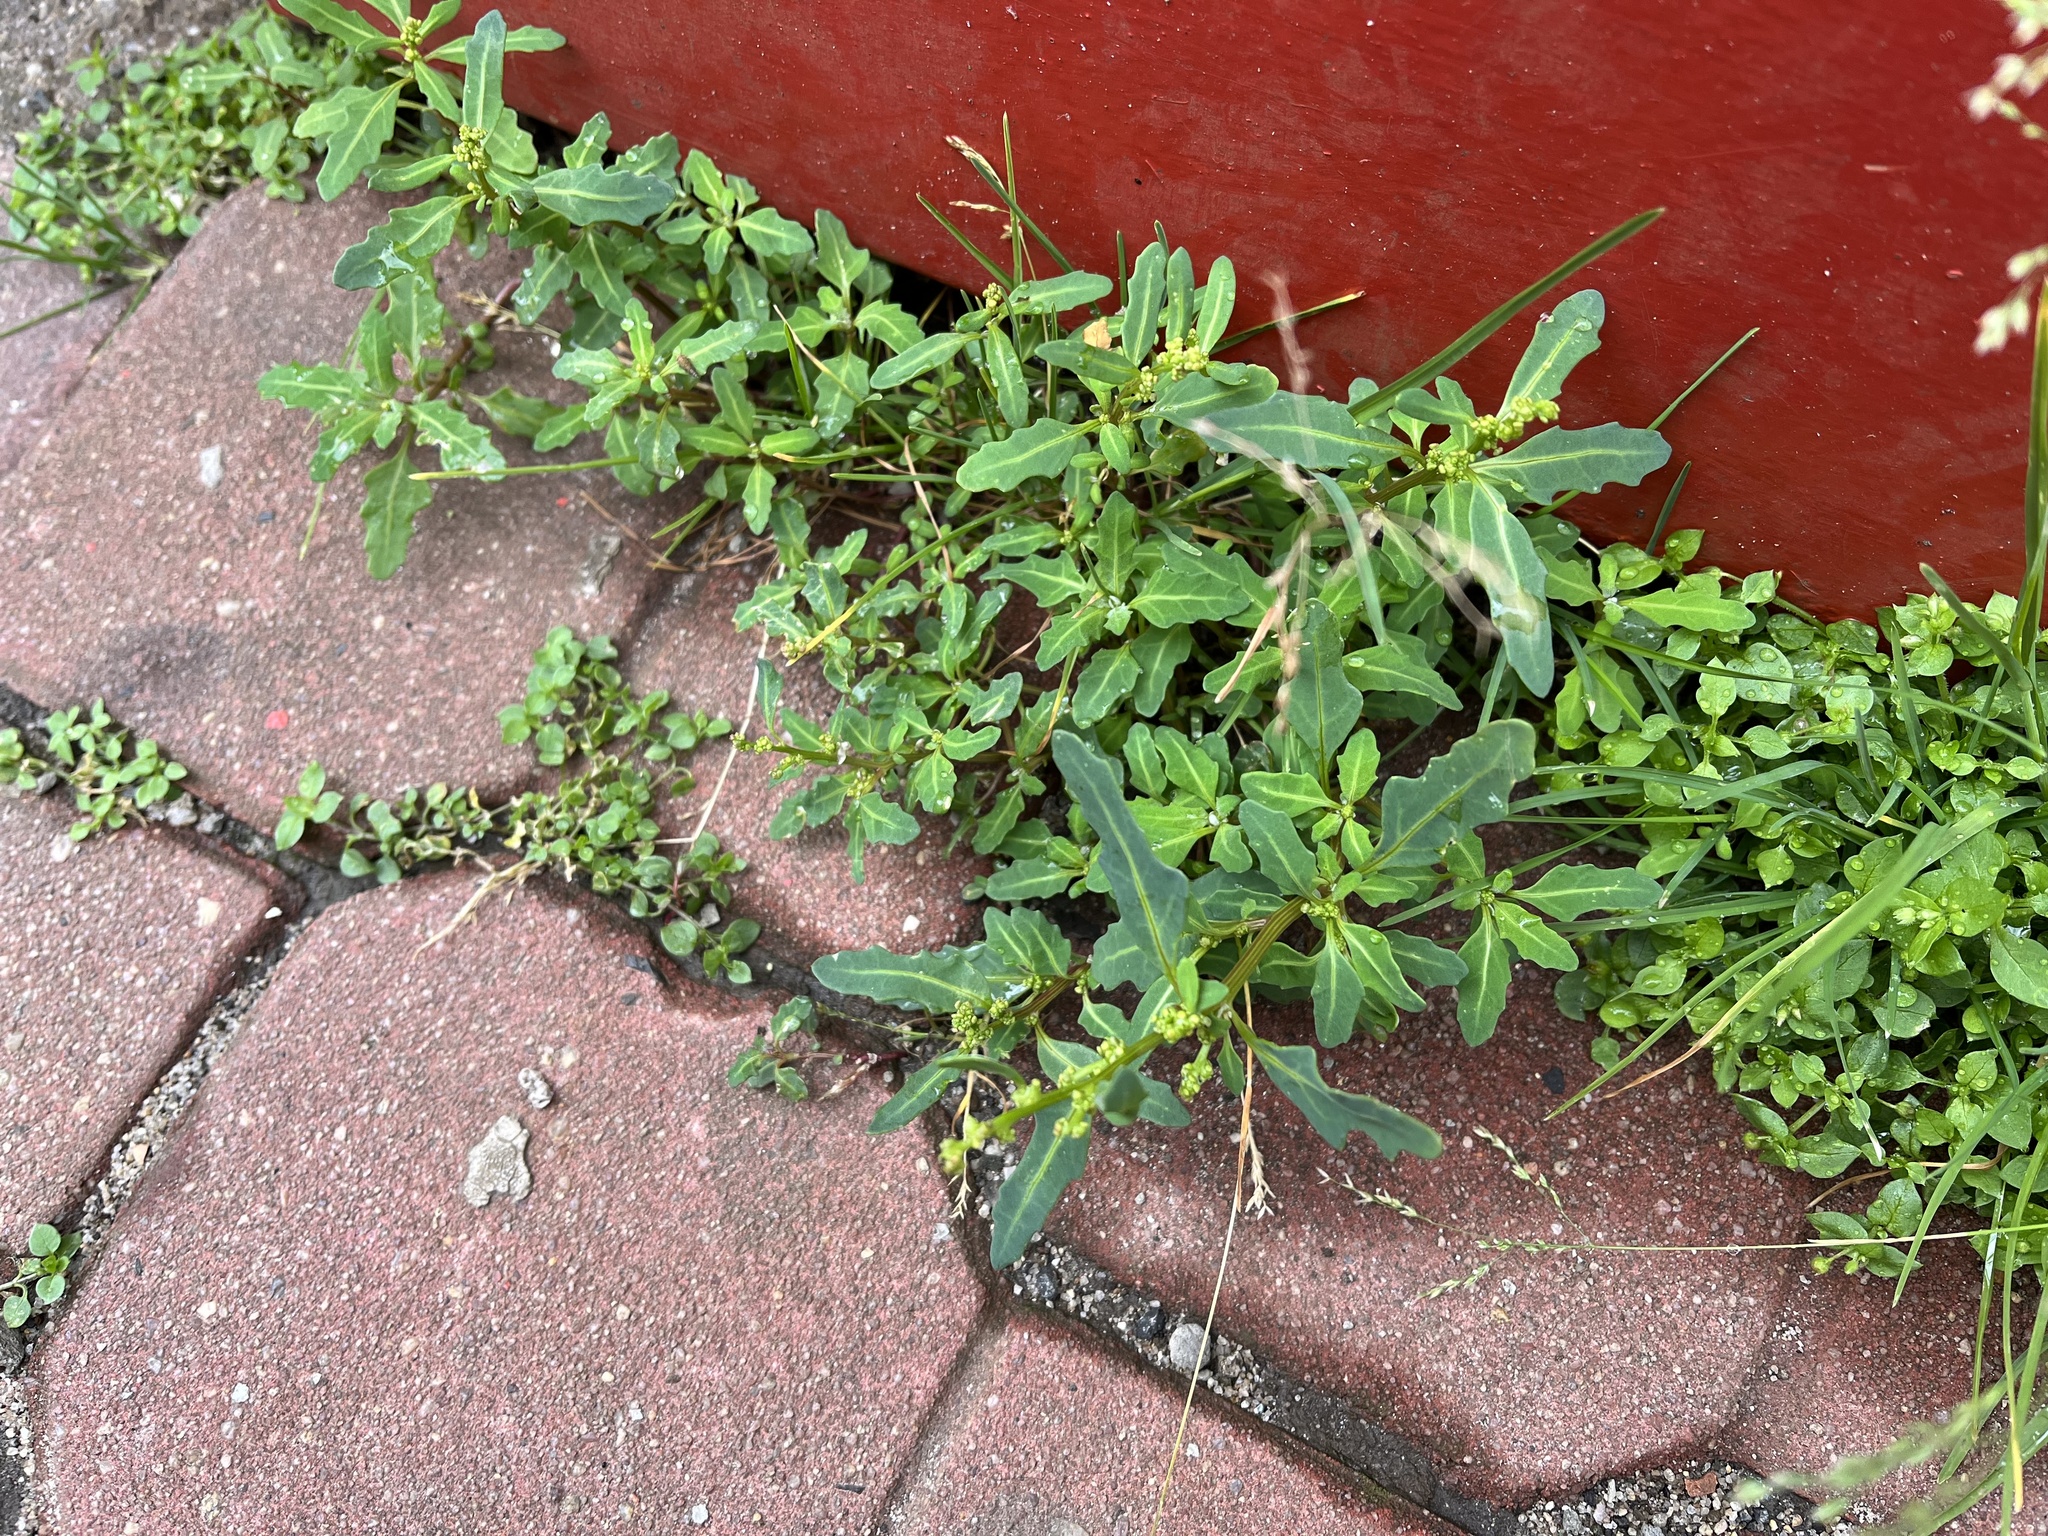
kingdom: Plantae
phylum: Tracheophyta
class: Magnoliopsida
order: Caryophyllales
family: Amaranthaceae
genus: Oxybasis
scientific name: Oxybasis glauca
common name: Glaucous goosefoot
